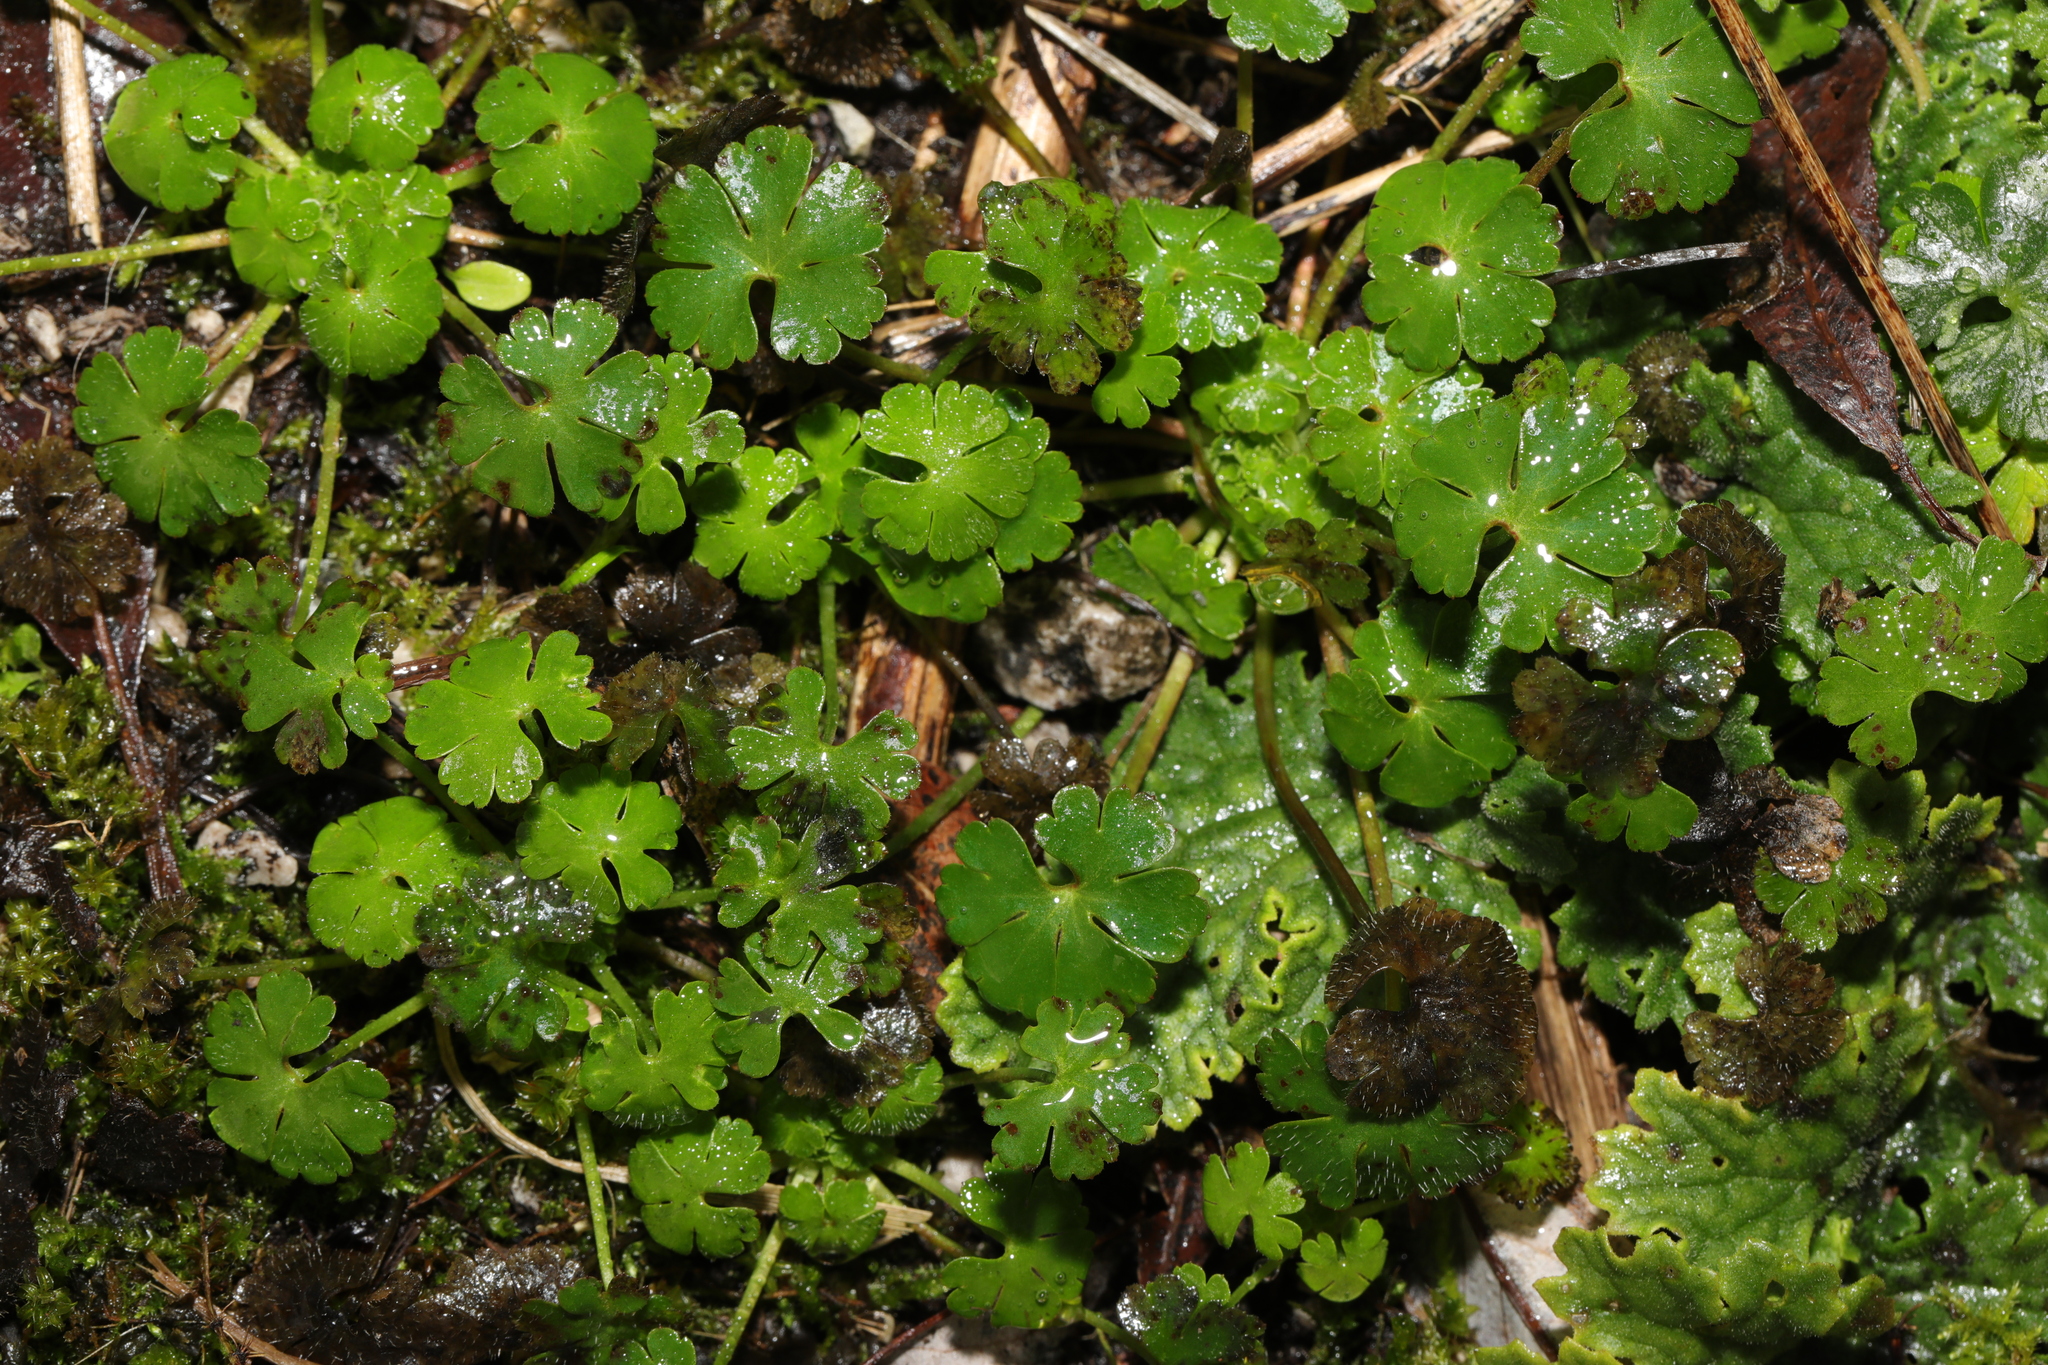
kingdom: Plantae
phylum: Tracheophyta
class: Magnoliopsida
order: Geraniales
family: Geraniaceae
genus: Geranium
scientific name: Geranium lucidum
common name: Shining crane's-bill
